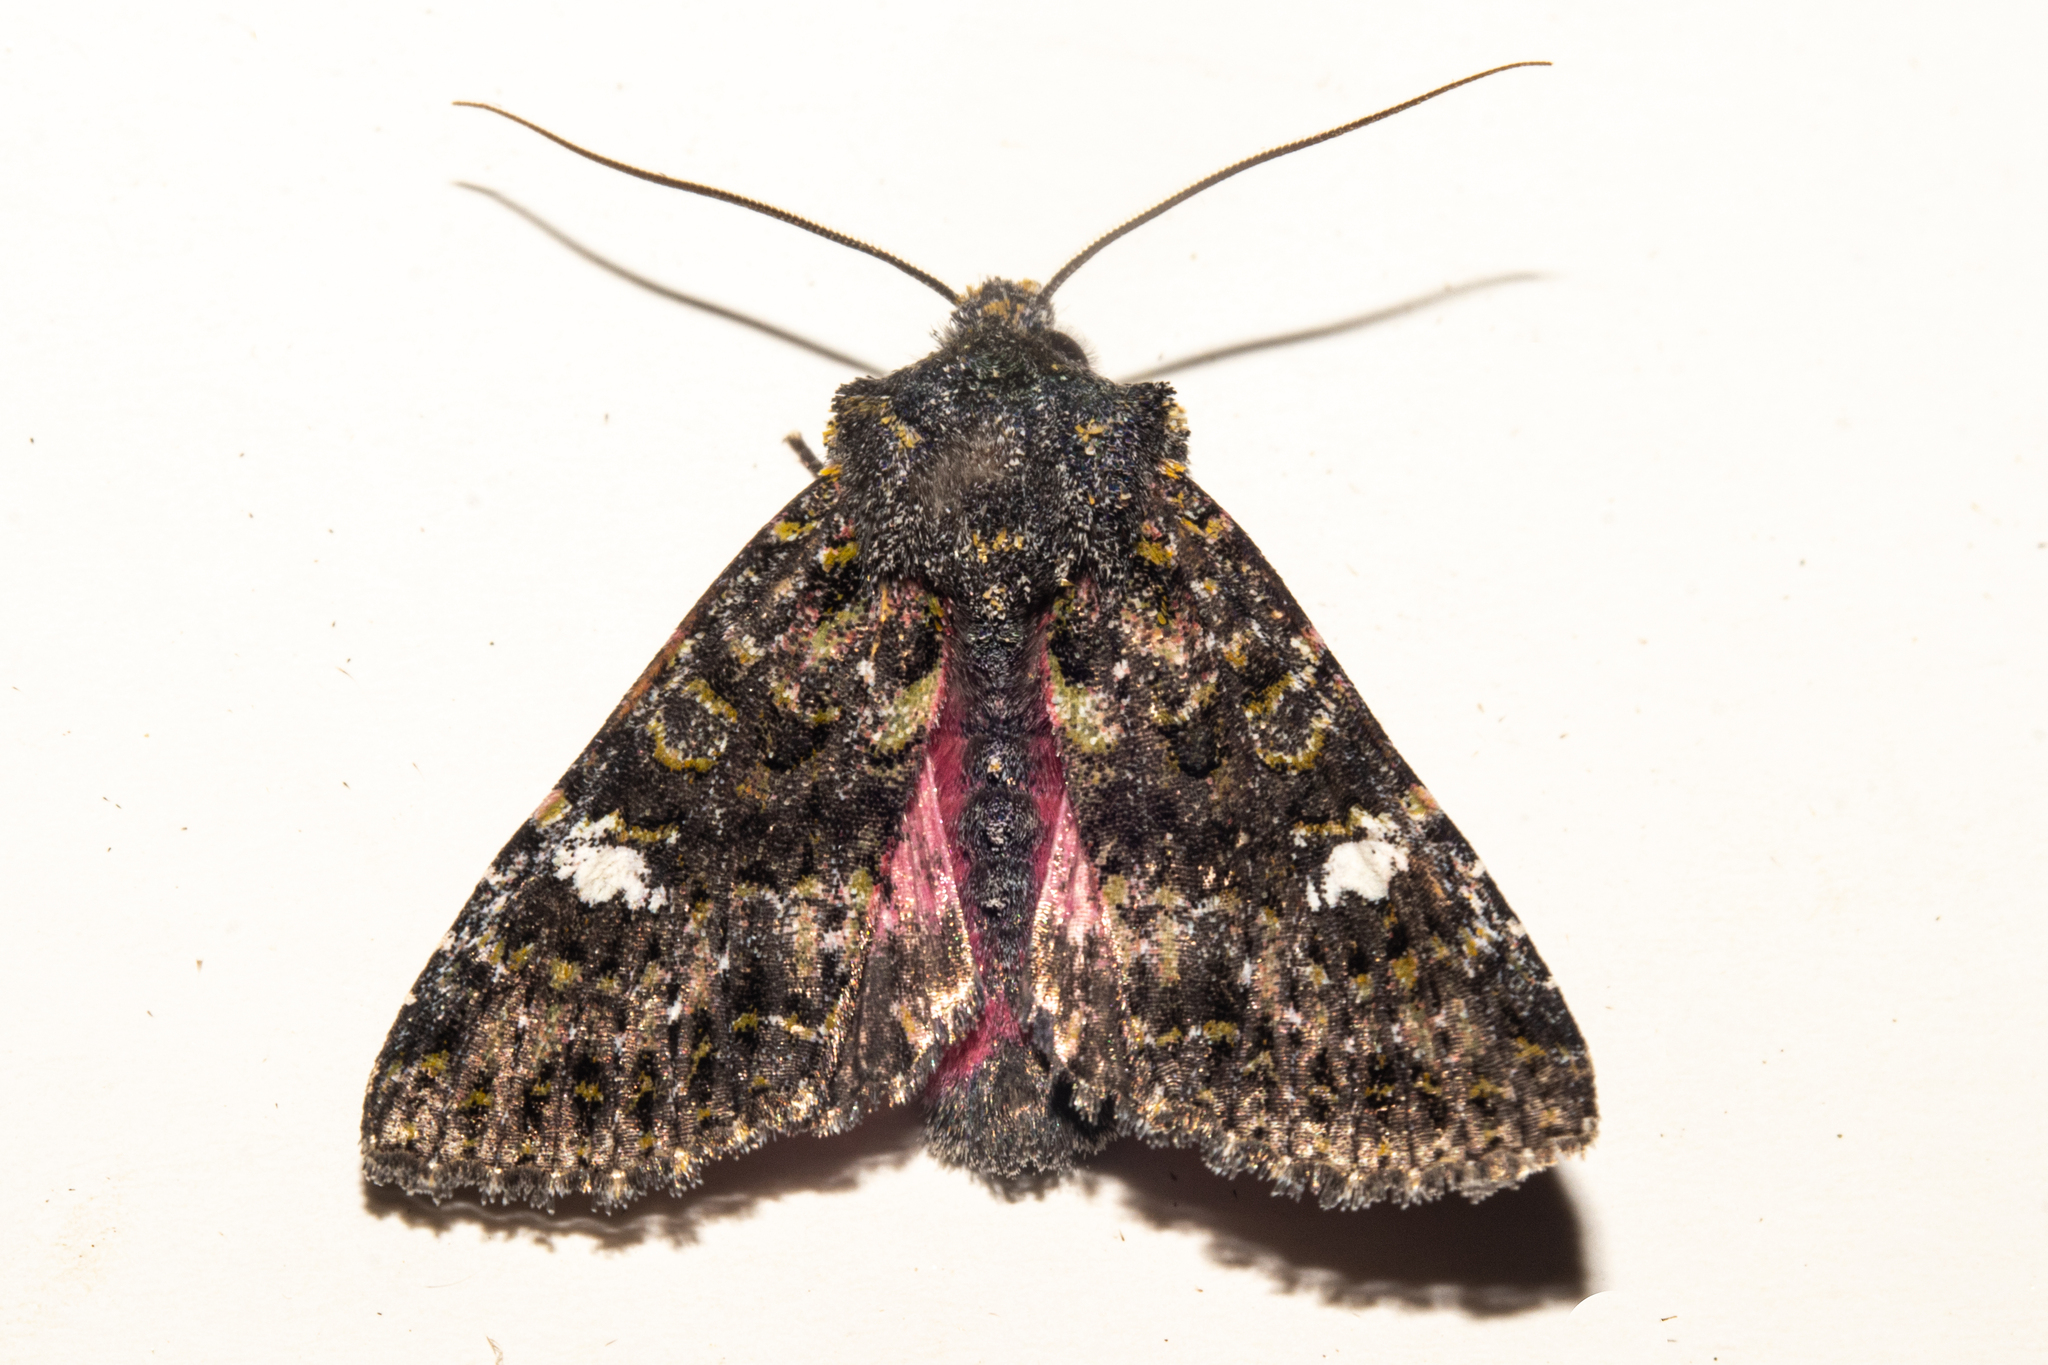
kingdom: Animalia
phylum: Arthropoda
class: Insecta
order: Lepidoptera
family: Noctuidae
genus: Meterana
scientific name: Meterana meyricci
